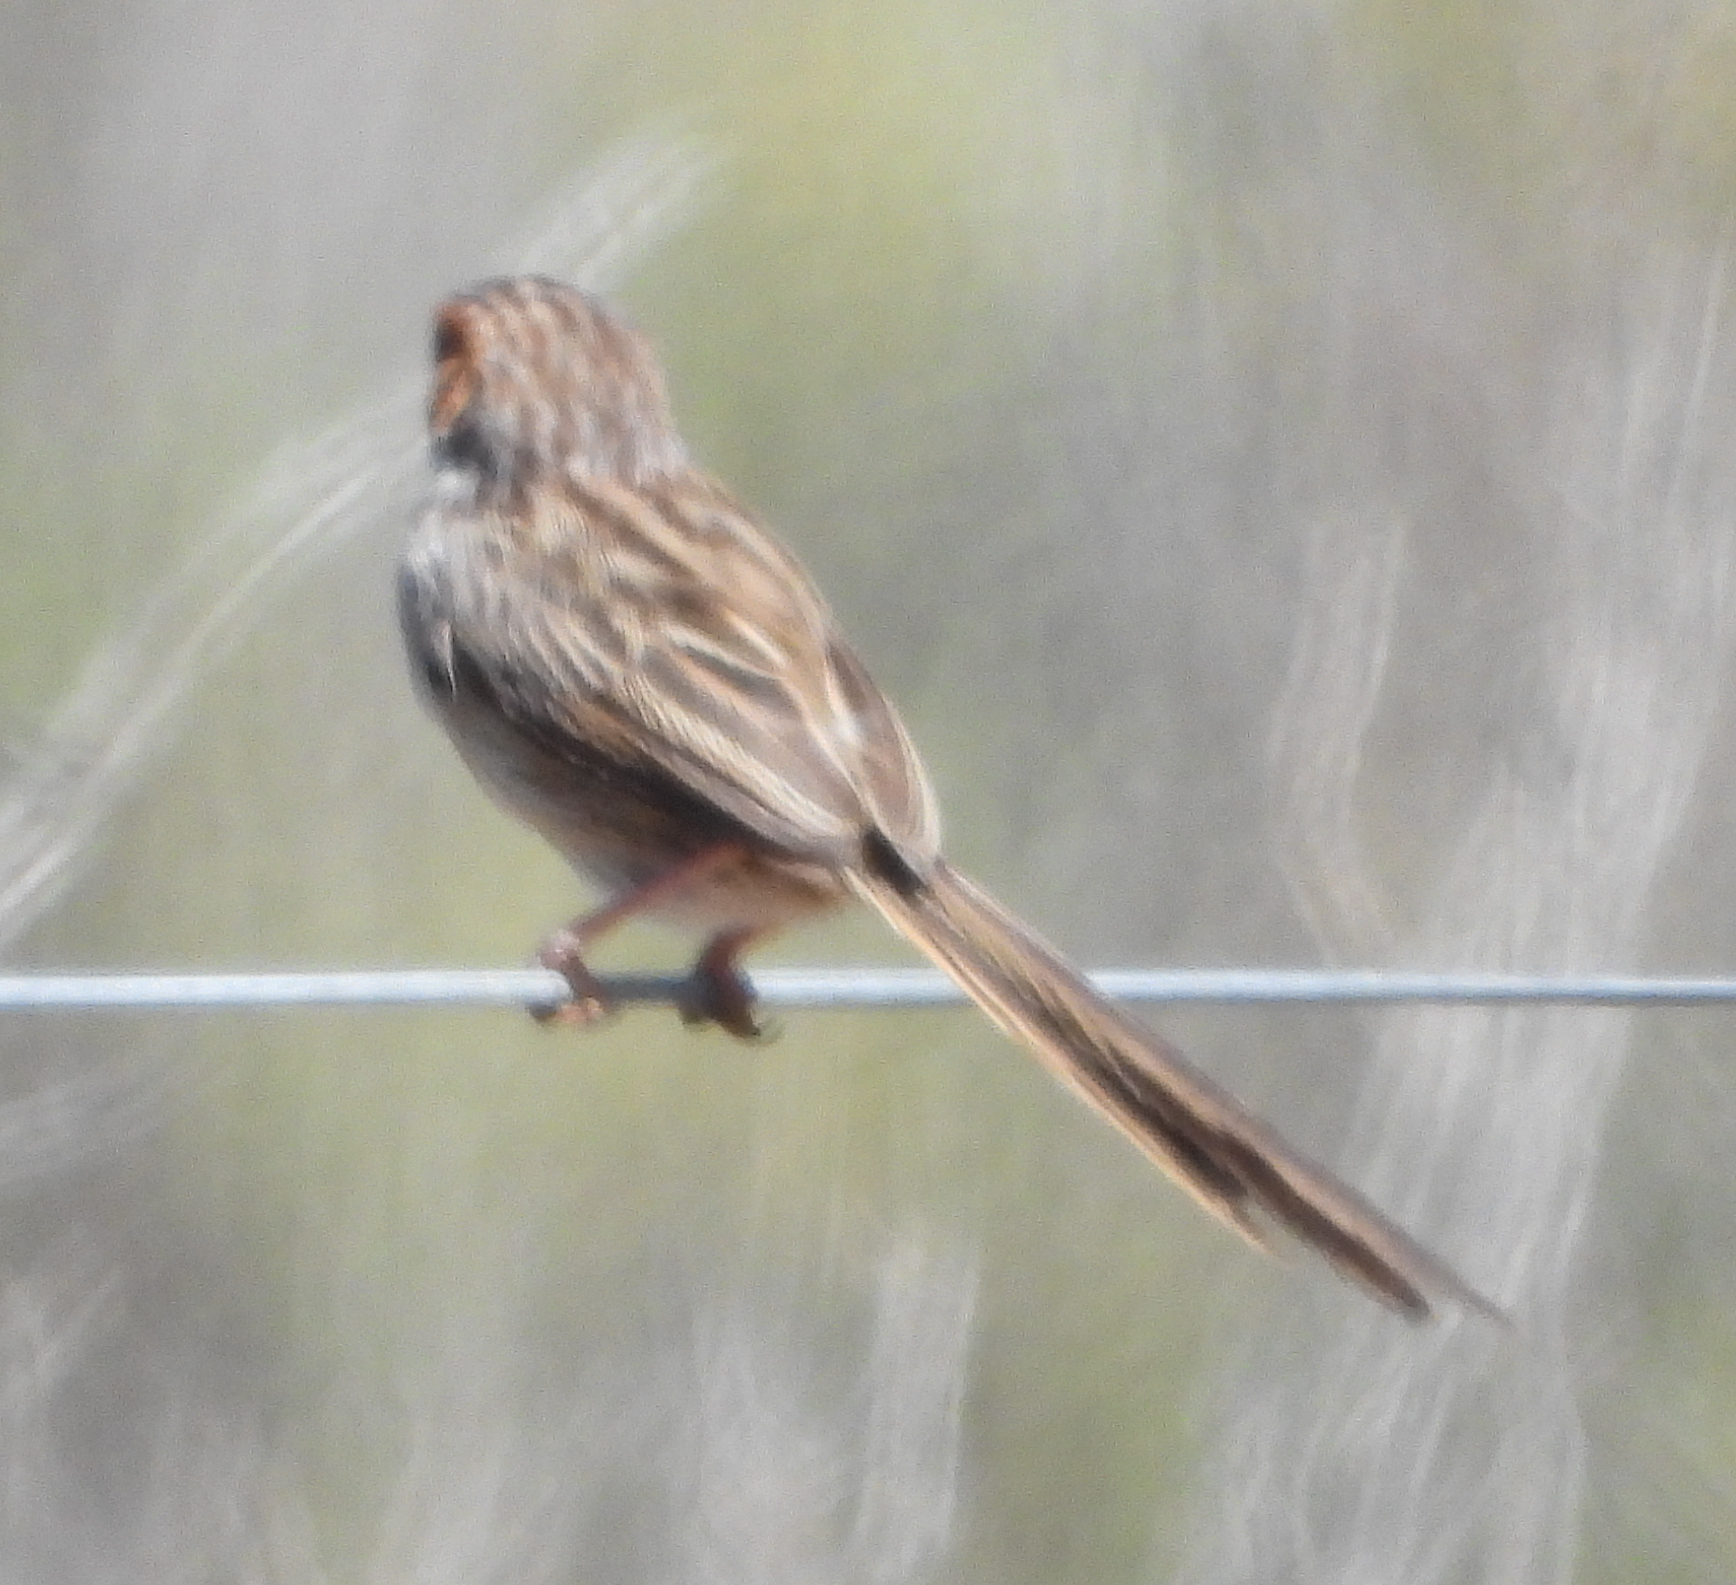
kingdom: Animalia
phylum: Chordata
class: Aves
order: Passeriformes
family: Cisticolidae
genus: Malcorus
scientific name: Malcorus pectoralis
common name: Rufous-eared warbler
